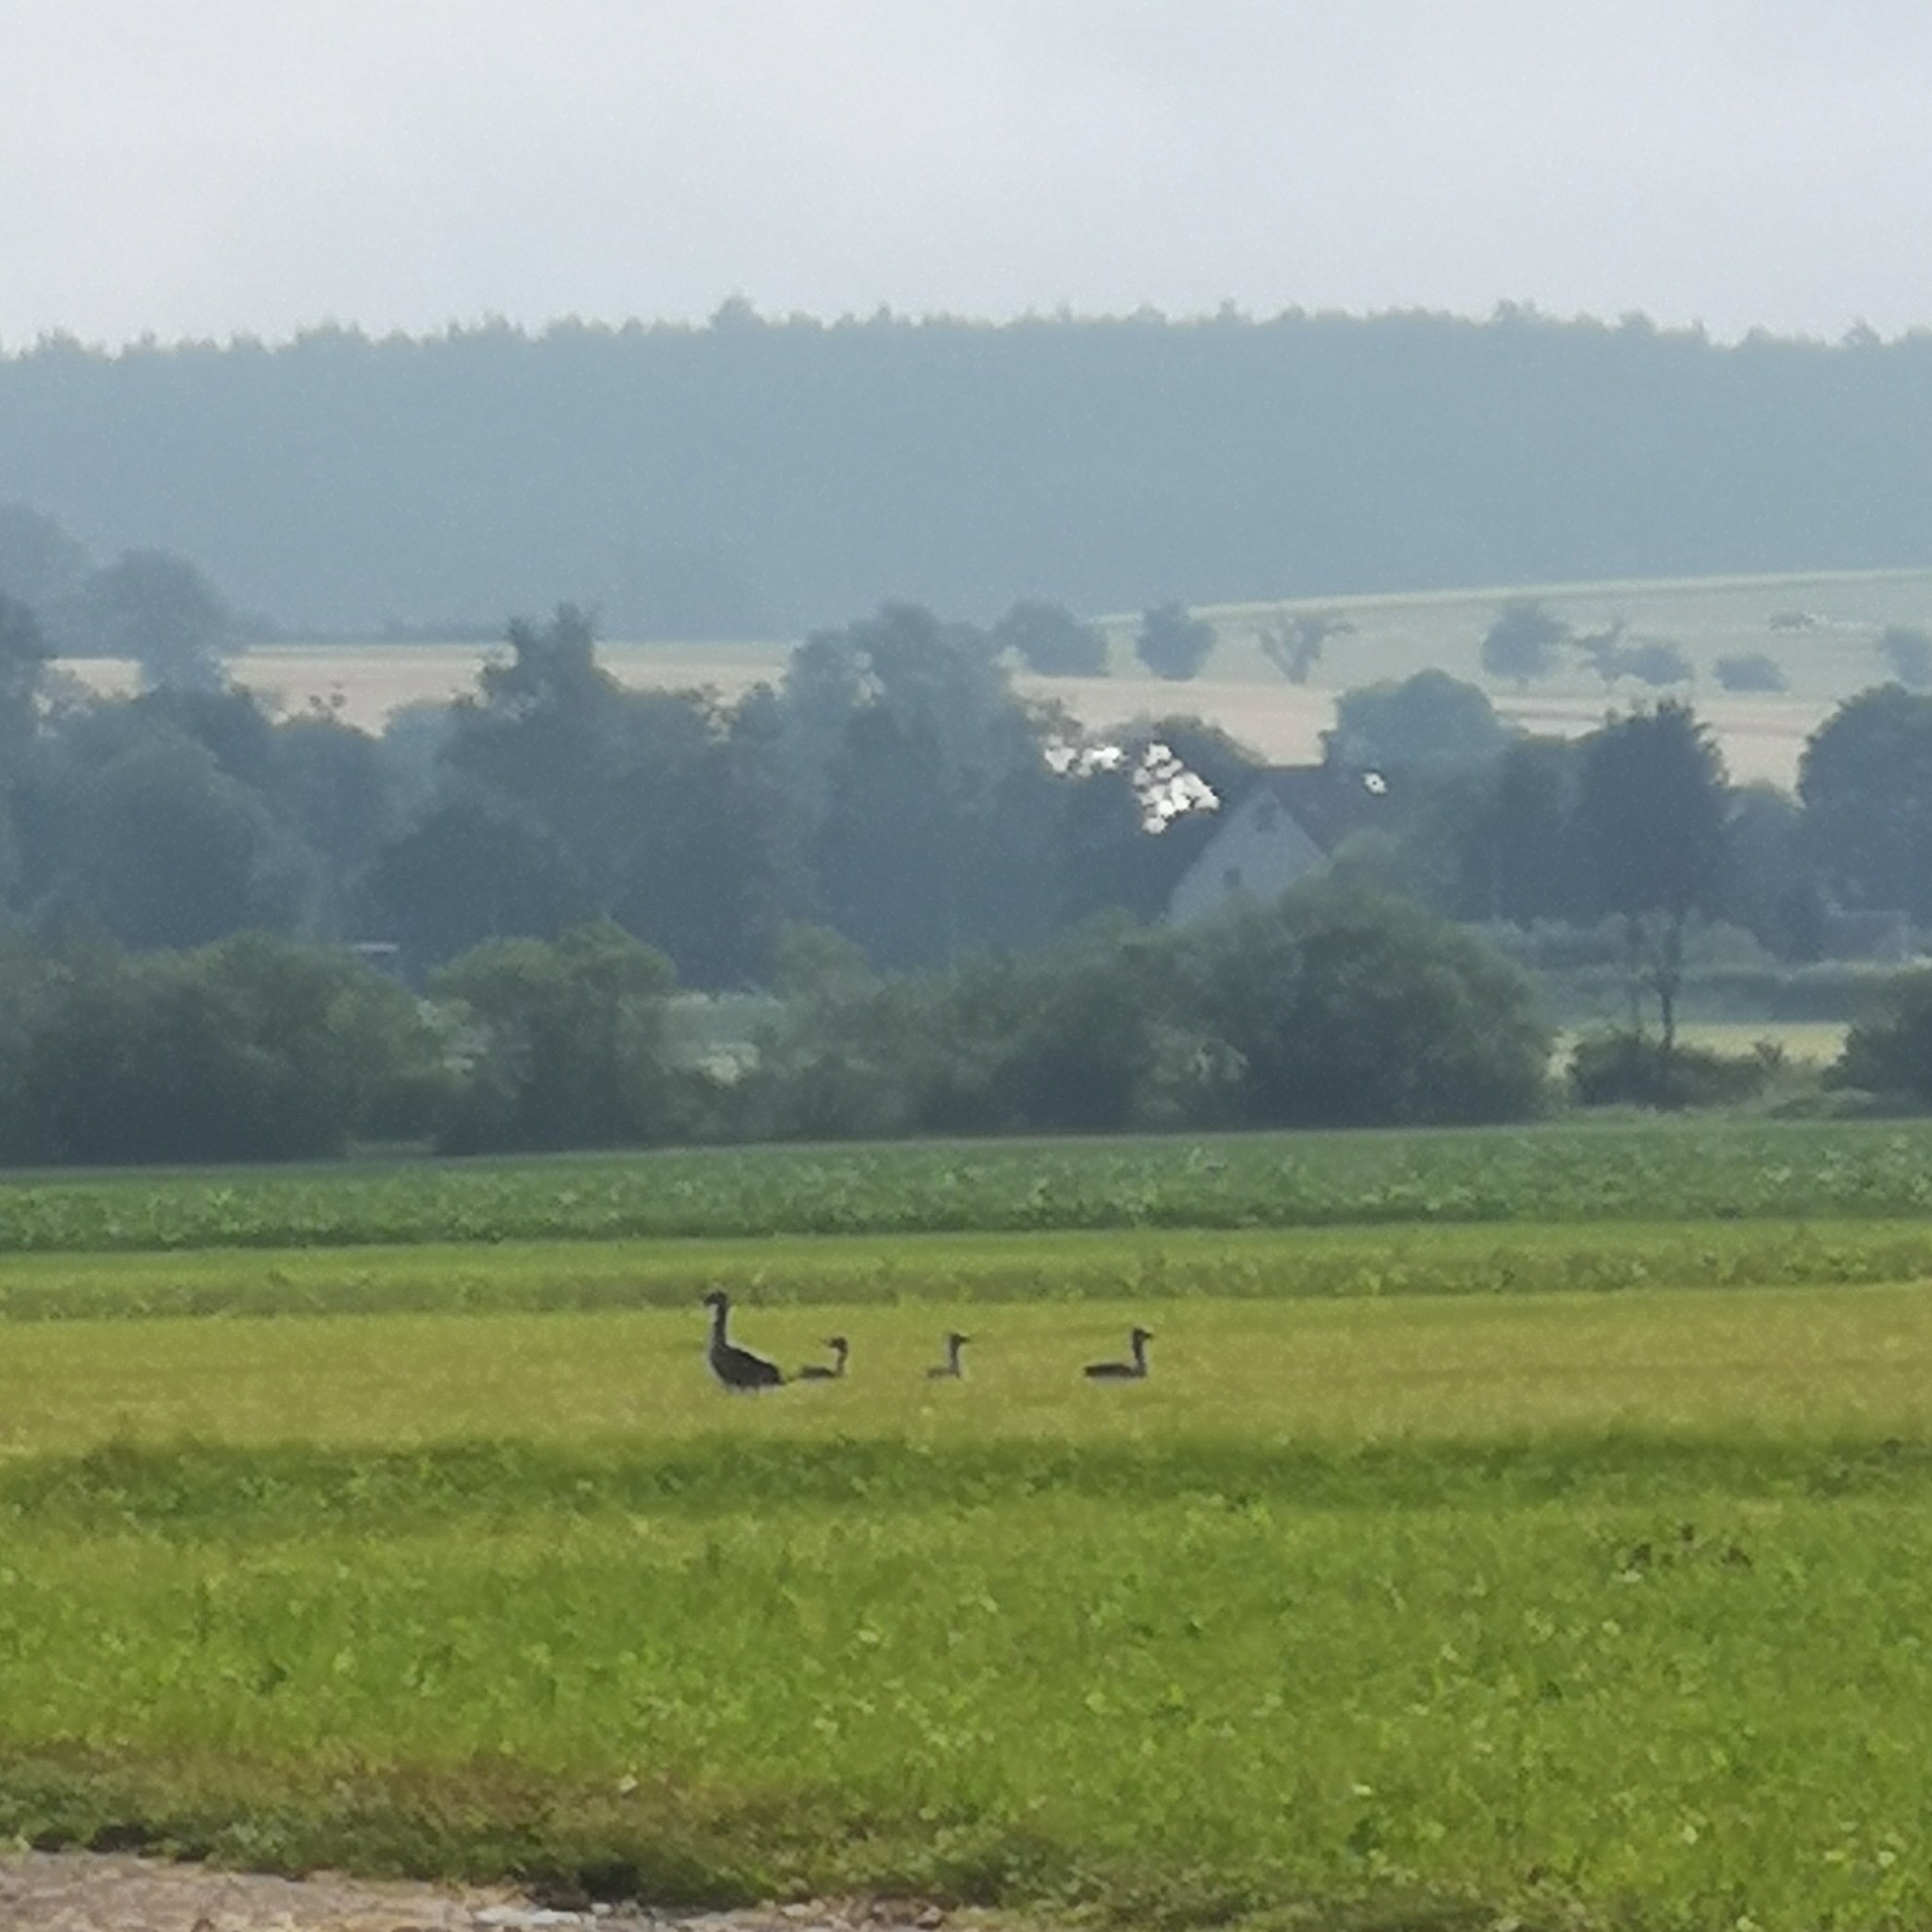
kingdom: Animalia
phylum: Chordata
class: Aves
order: Anseriformes
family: Anatidae
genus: Anser
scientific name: Anser anser
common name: Greylag goose
